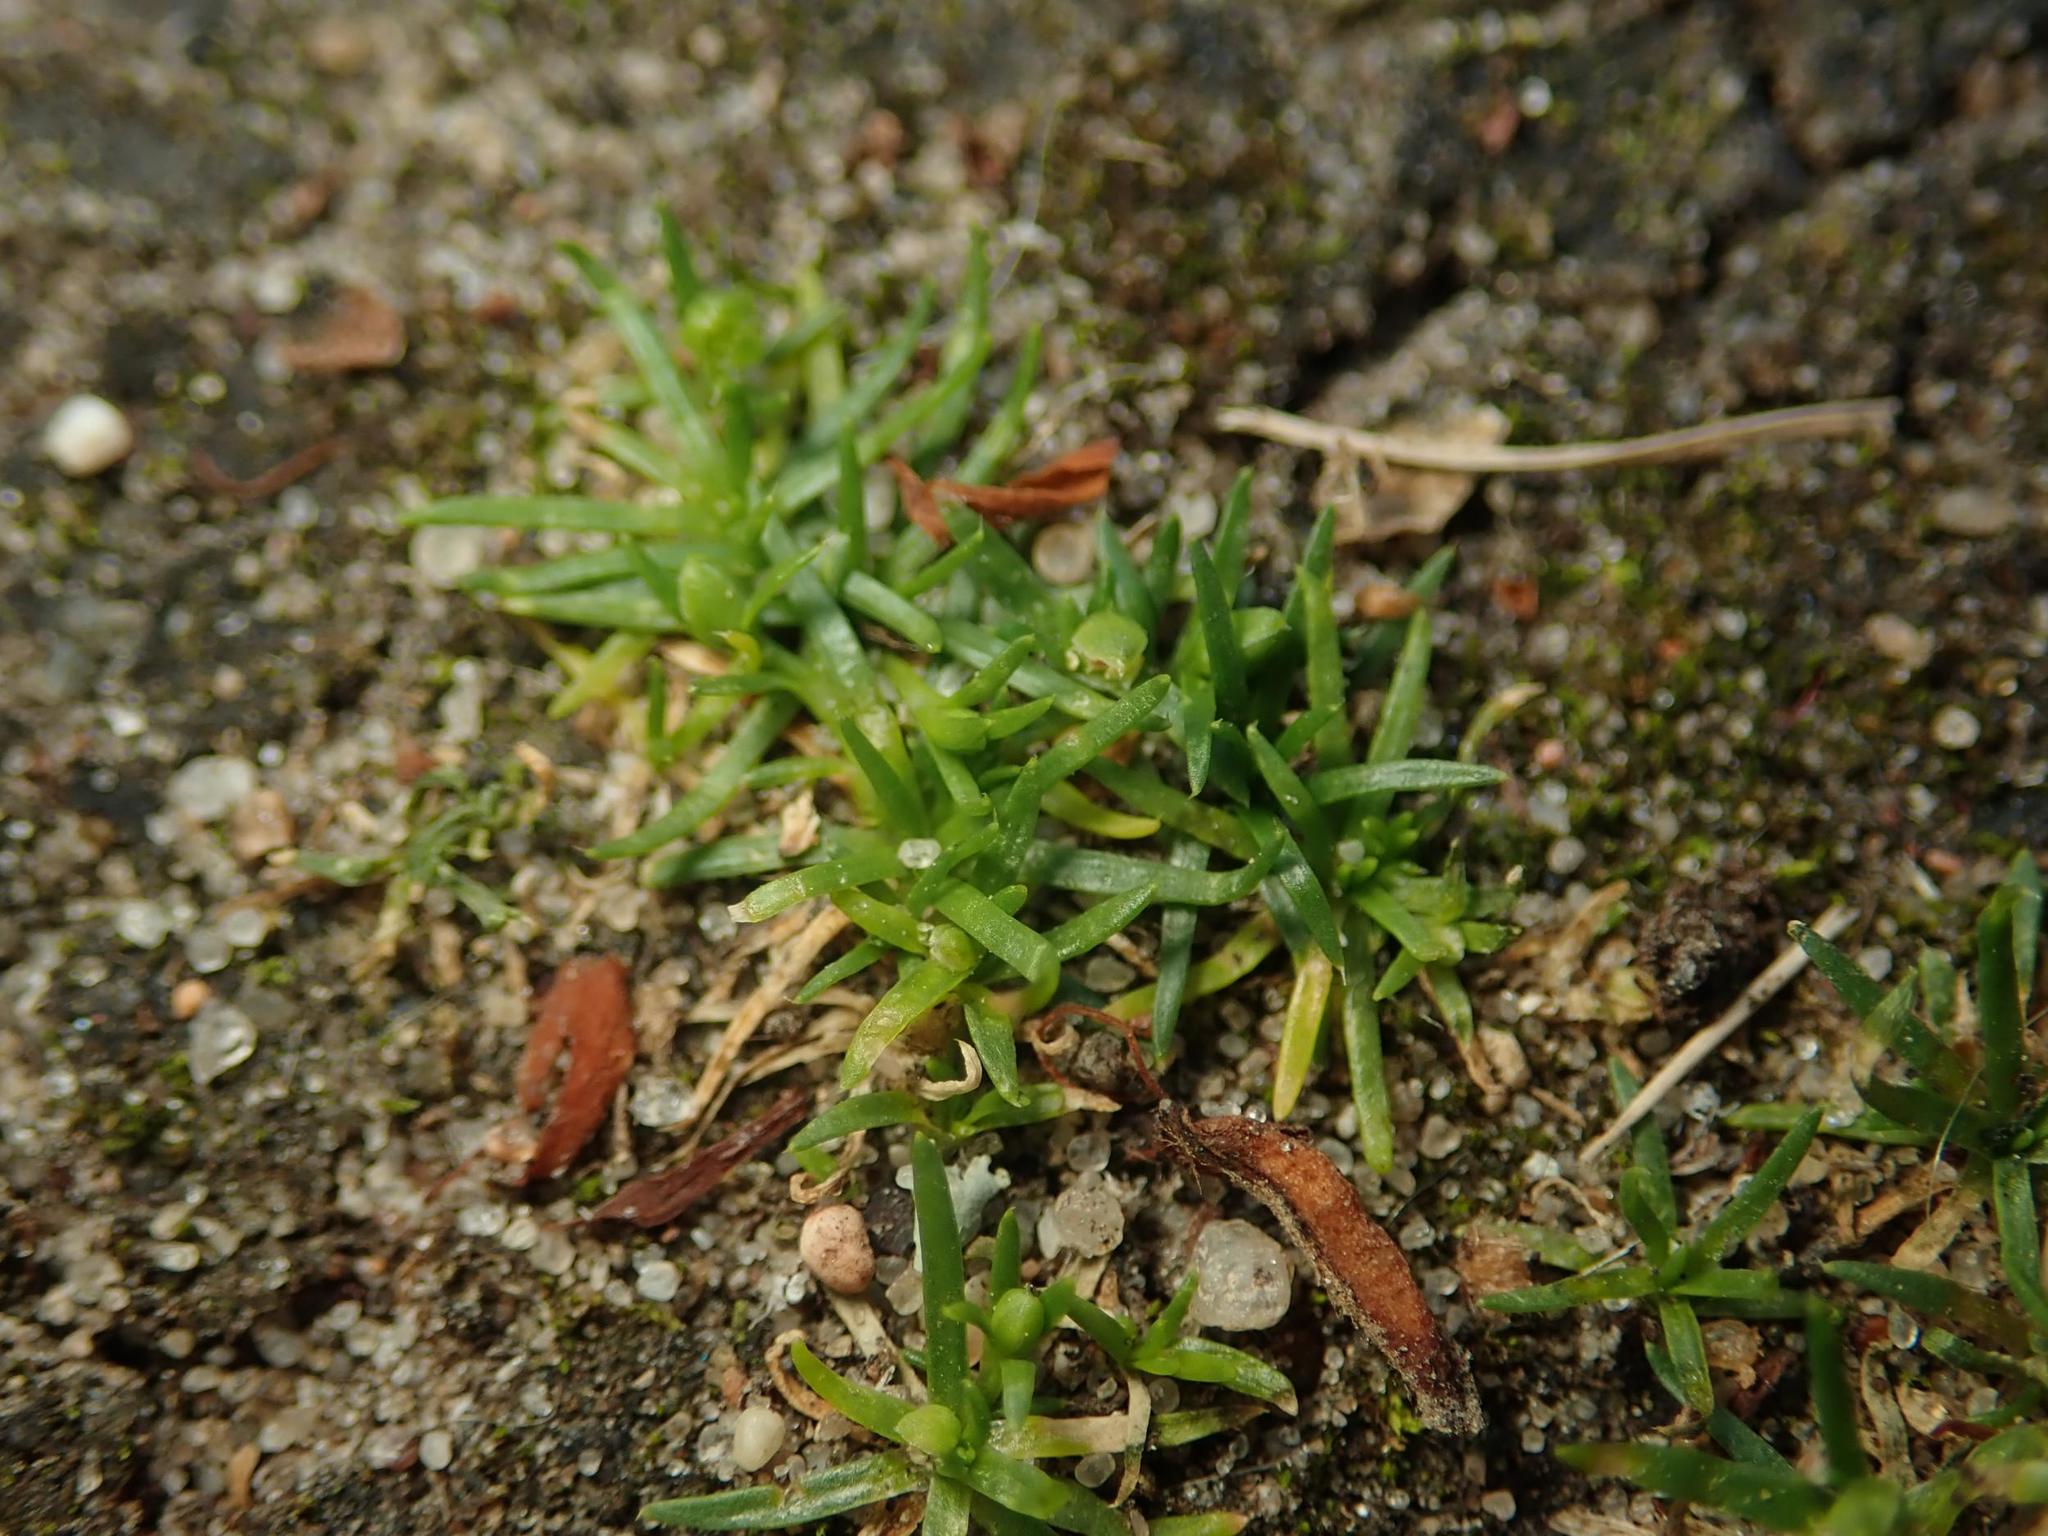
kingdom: Plantae
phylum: Tracheophyta
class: Magnoliopsida
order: Caryophyllales
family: Caryophyllaceae
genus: Sagina
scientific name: Sagina procumbens
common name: Procumbent pearlwort
